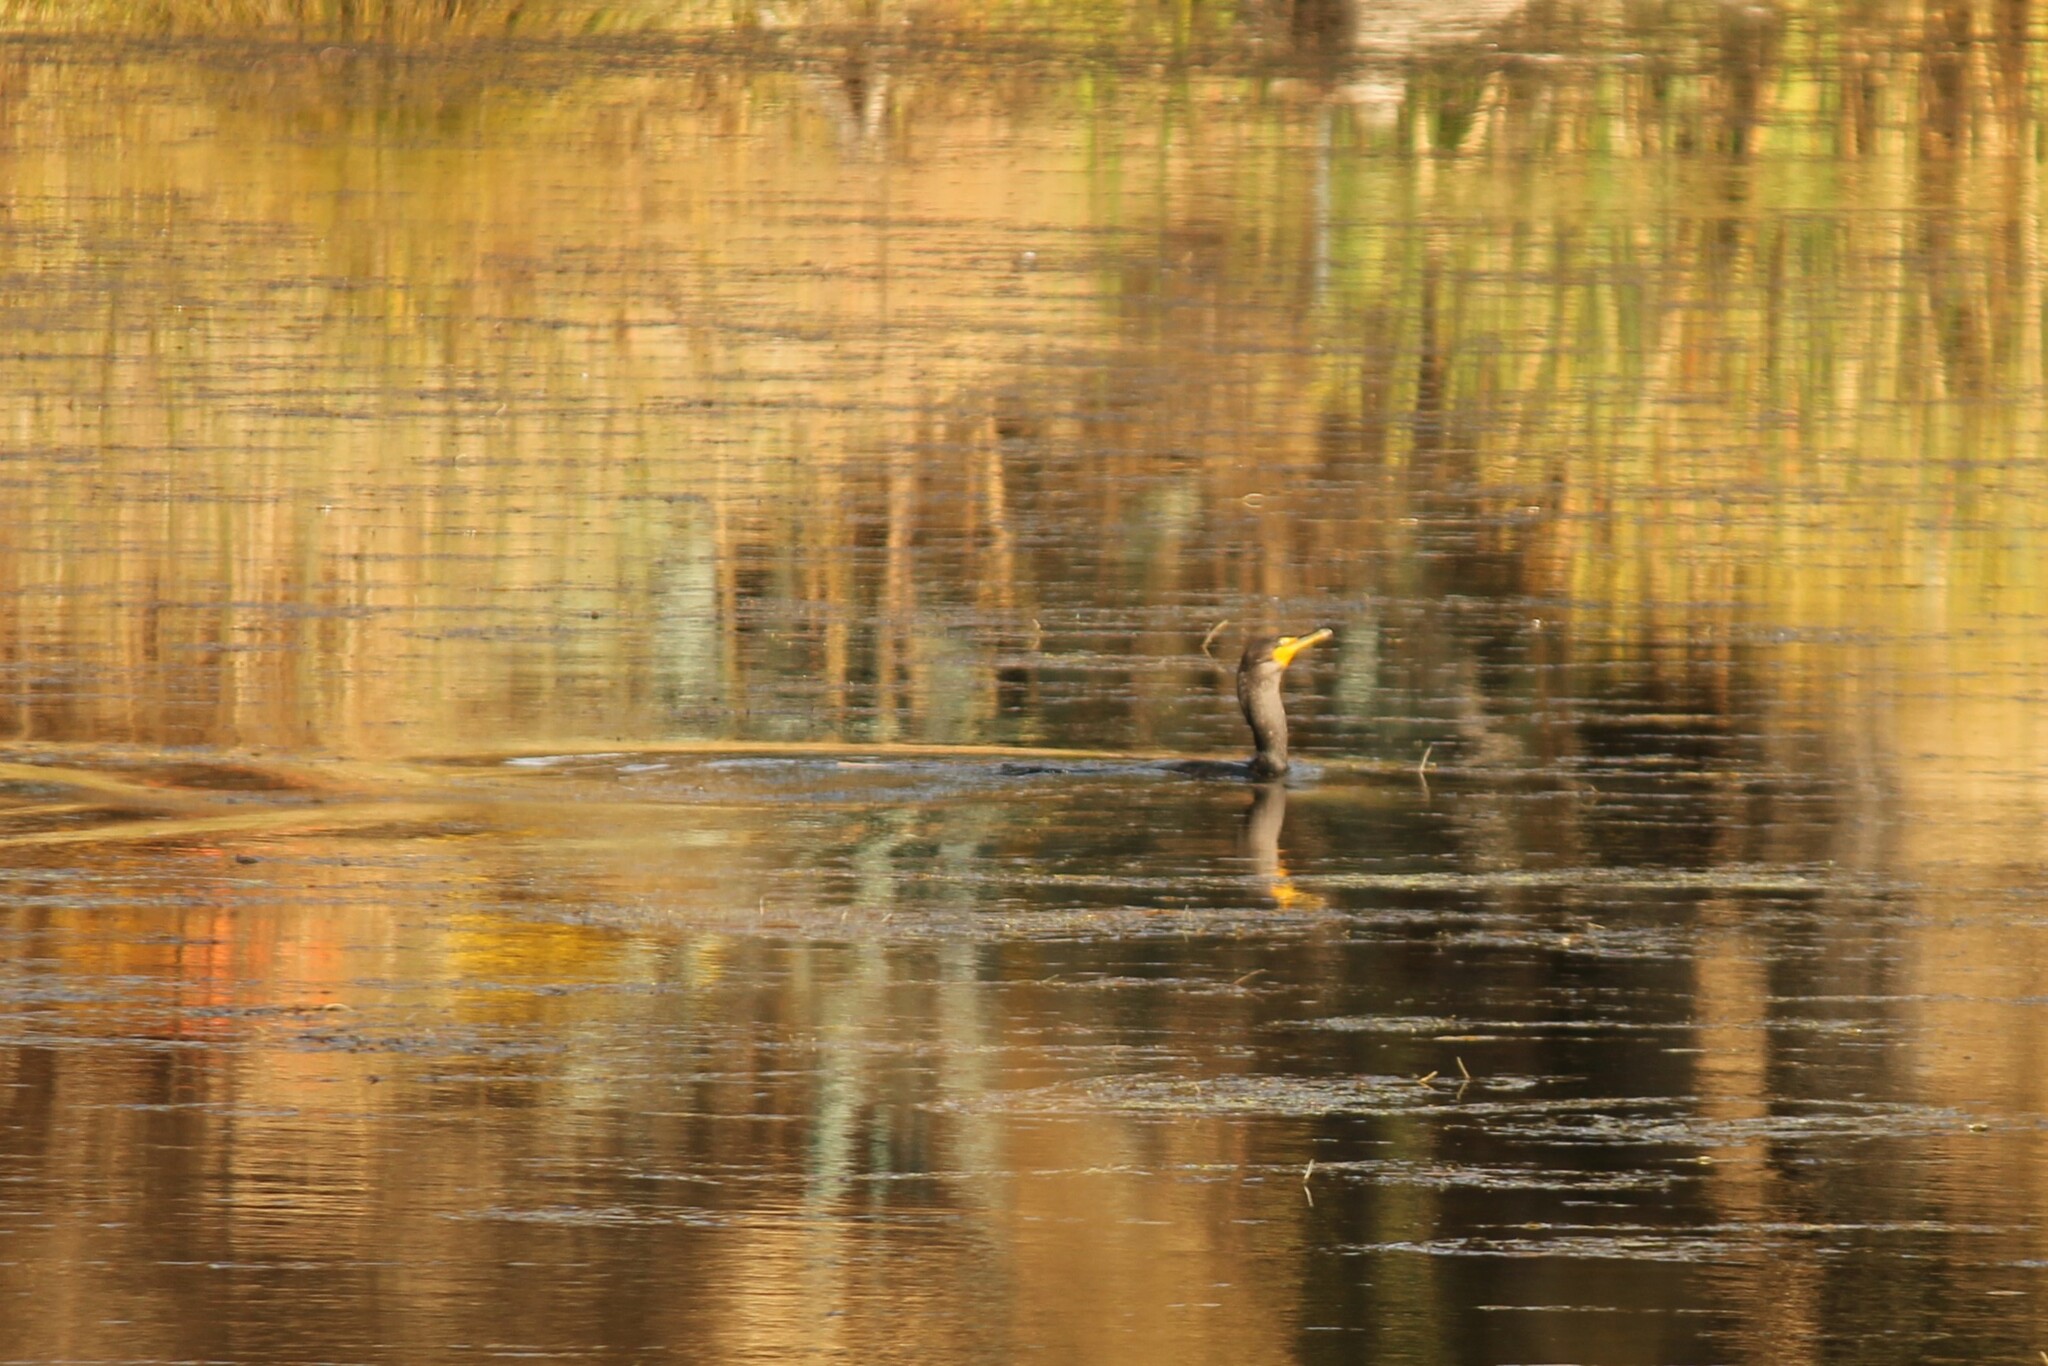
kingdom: Animalia
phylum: Chordata
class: Aves
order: Suliformes
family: Phalacrocoracidae
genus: Phalacrocorax
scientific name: Phalacrocorax auritus
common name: Double-crested cormorant
